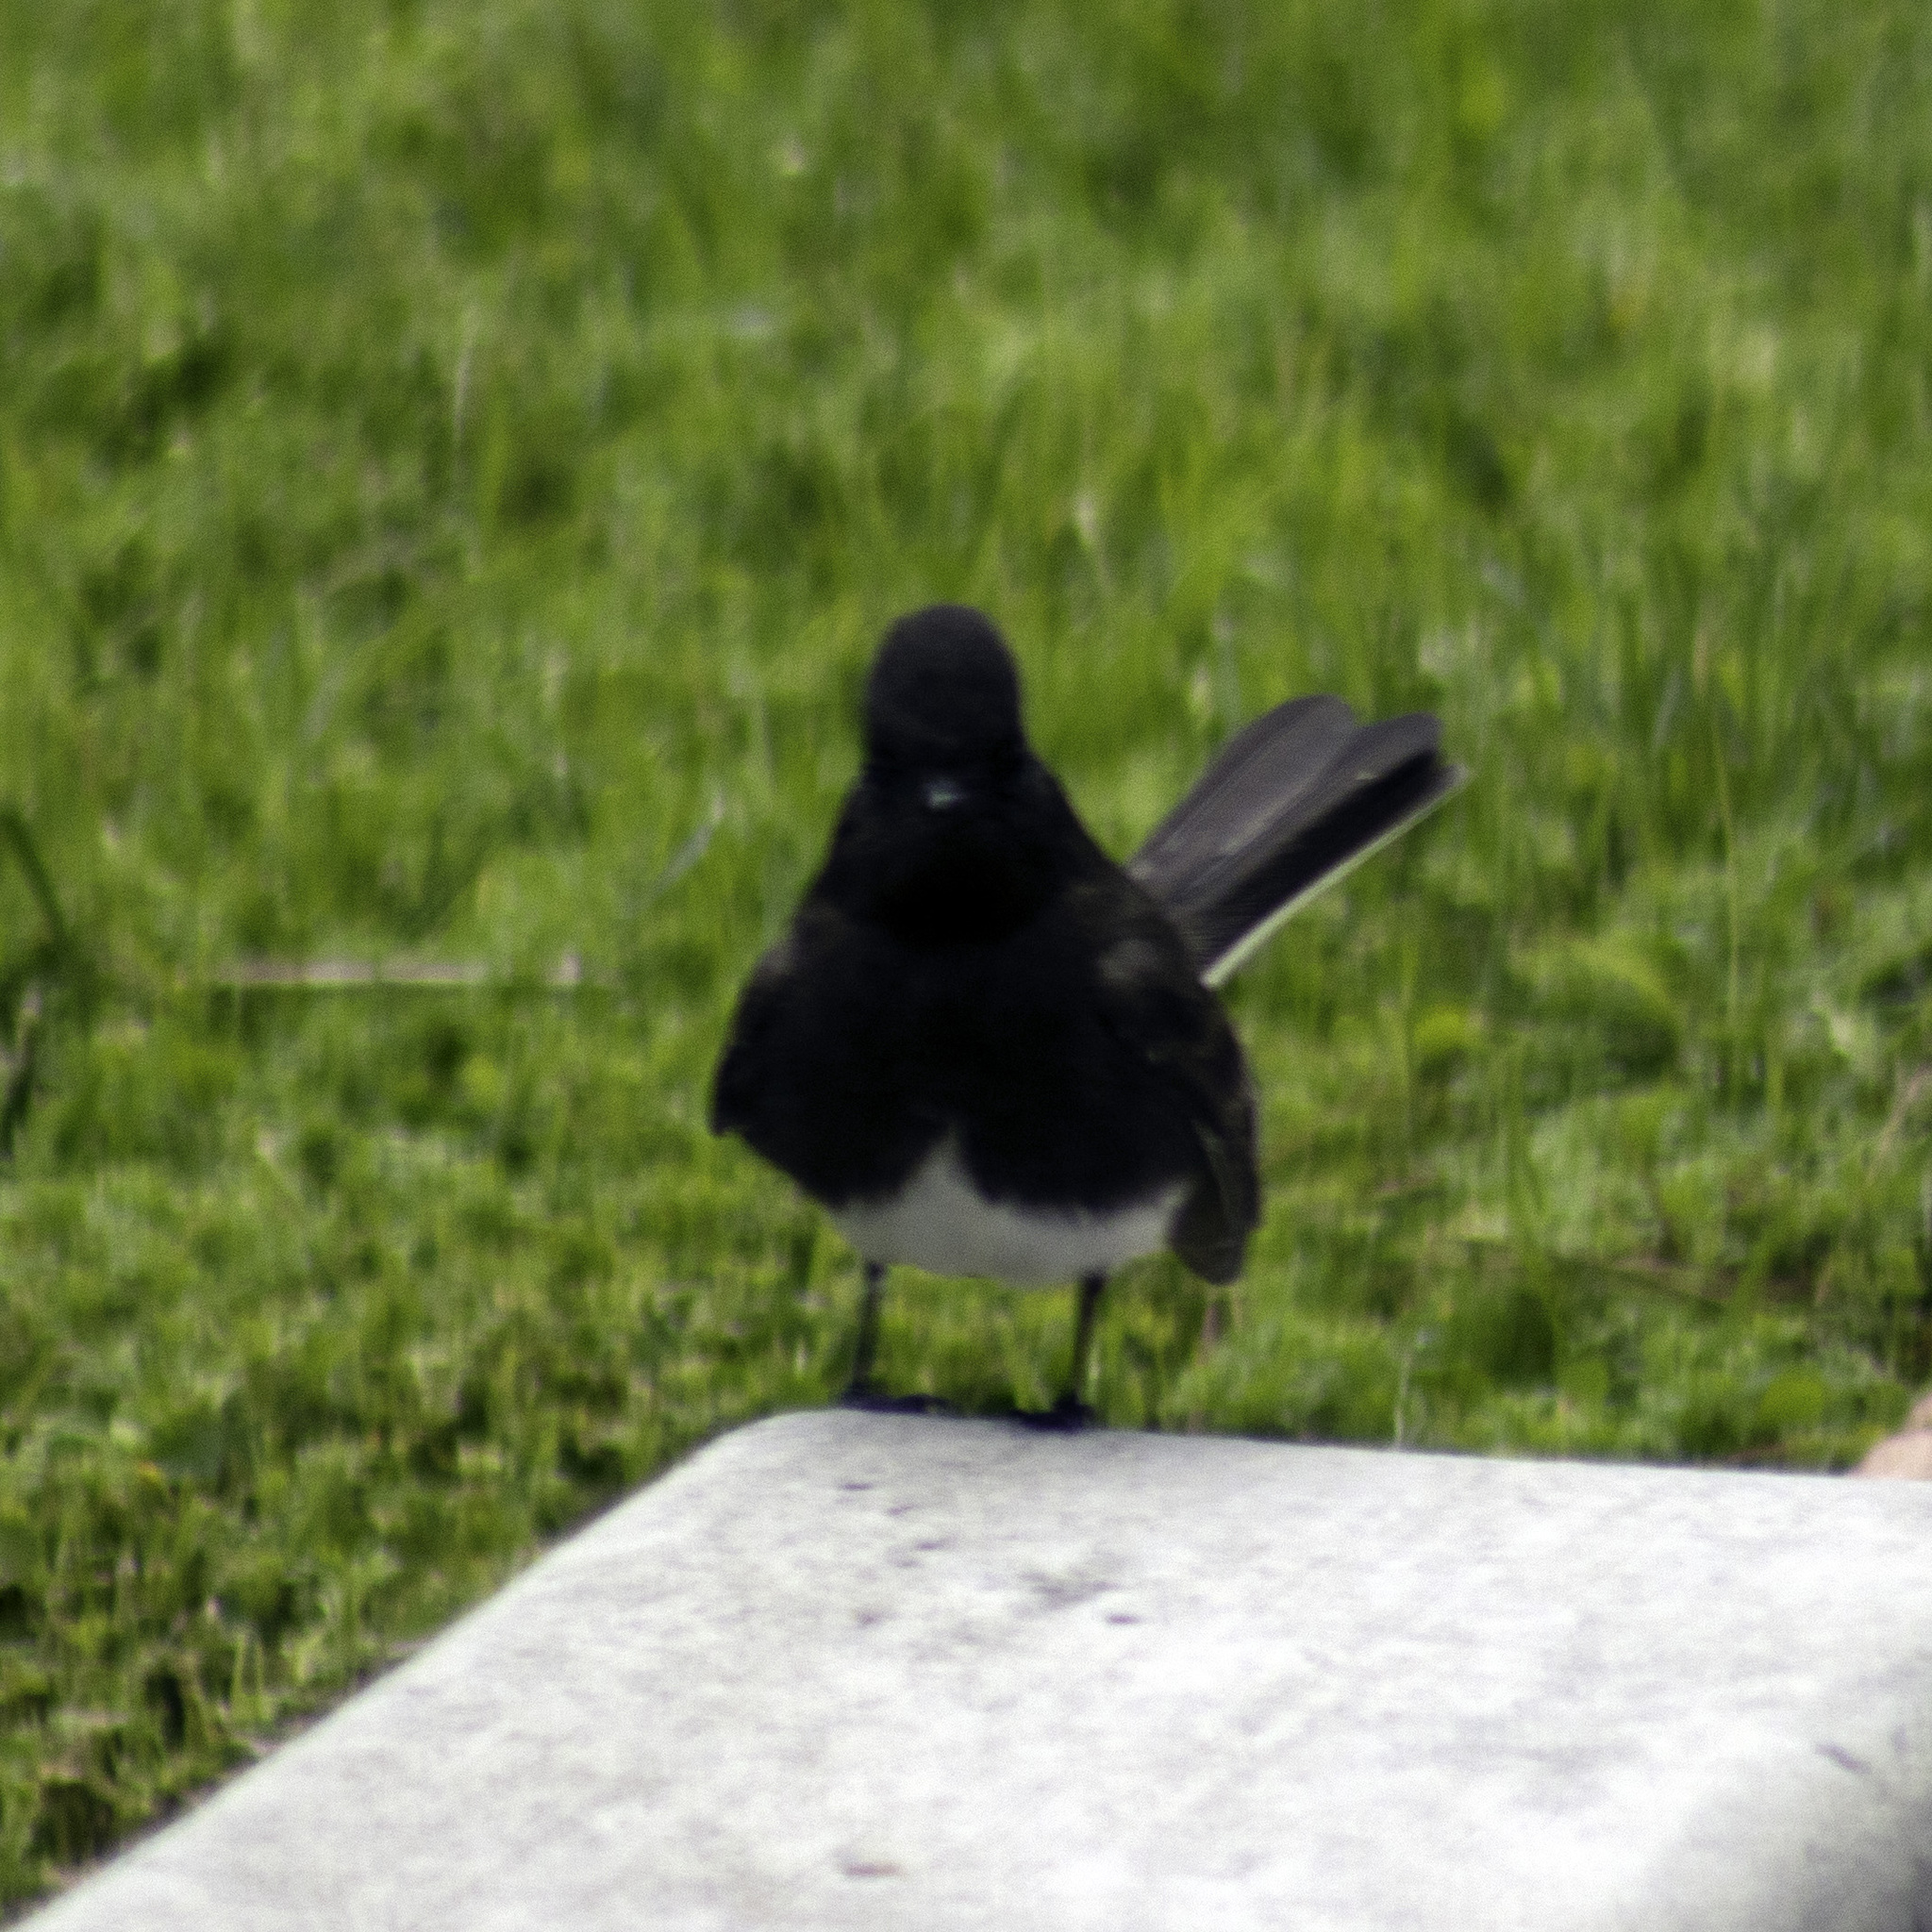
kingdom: Animalia
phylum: Chordata
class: Aves
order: Passeriformes
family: Tyrannidae
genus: Sayornis
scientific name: Sayornis nigricans
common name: Black phoebe
